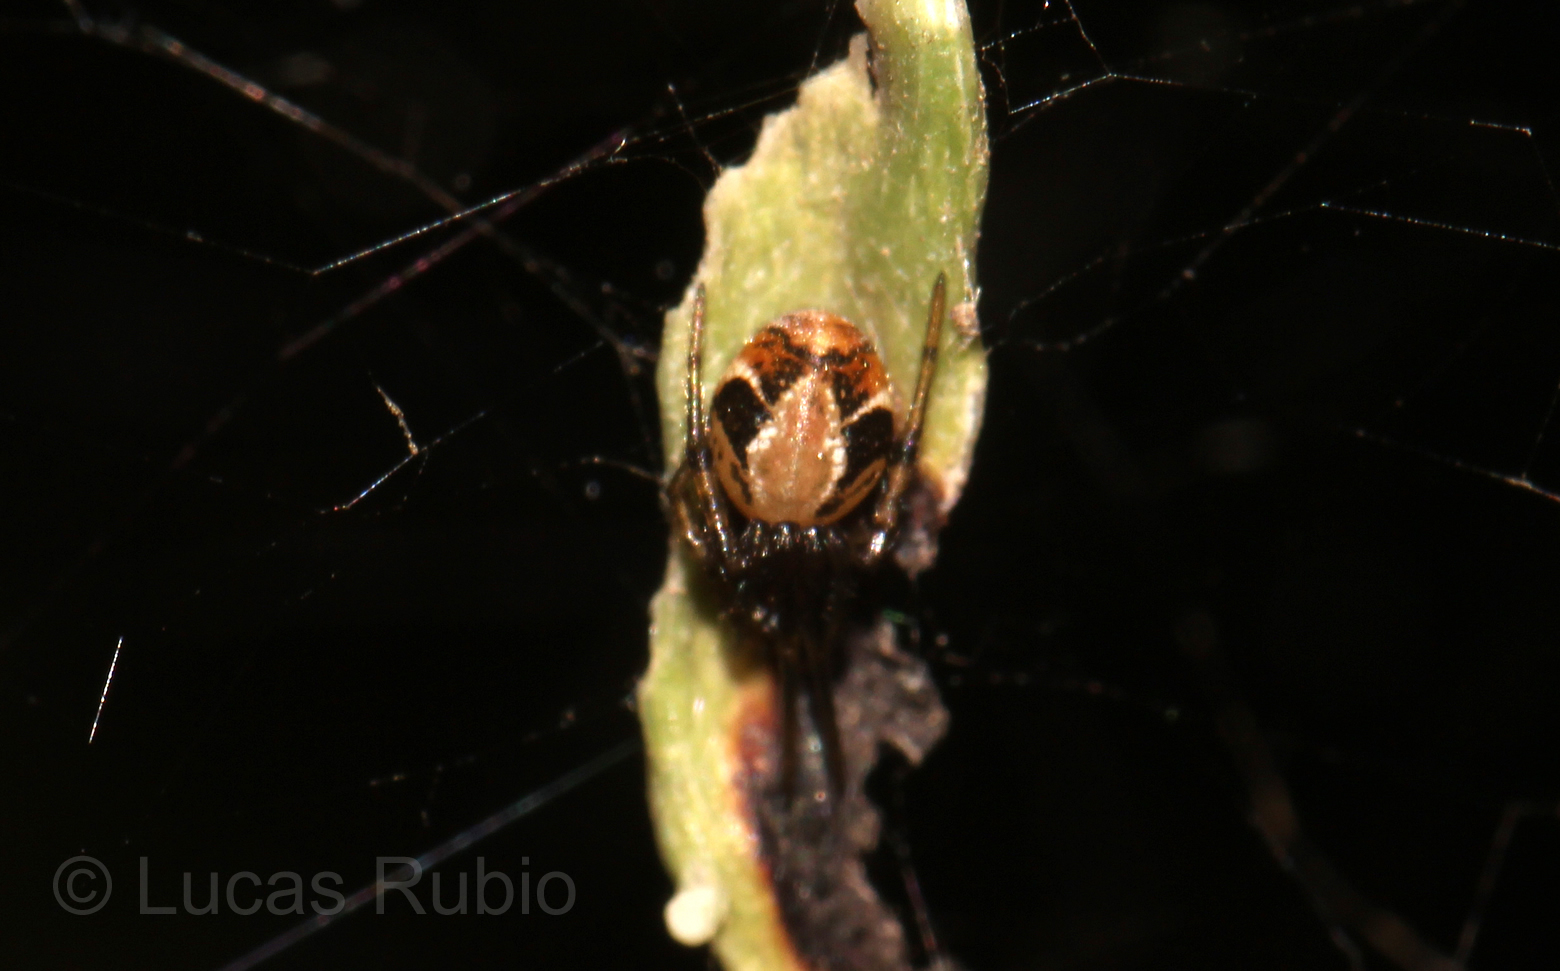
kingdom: Animalia
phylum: Arthropoda
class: Arachnida
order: Araneae
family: Theridiidae
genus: Nihonhimea
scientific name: Nihonhimea tesselata
